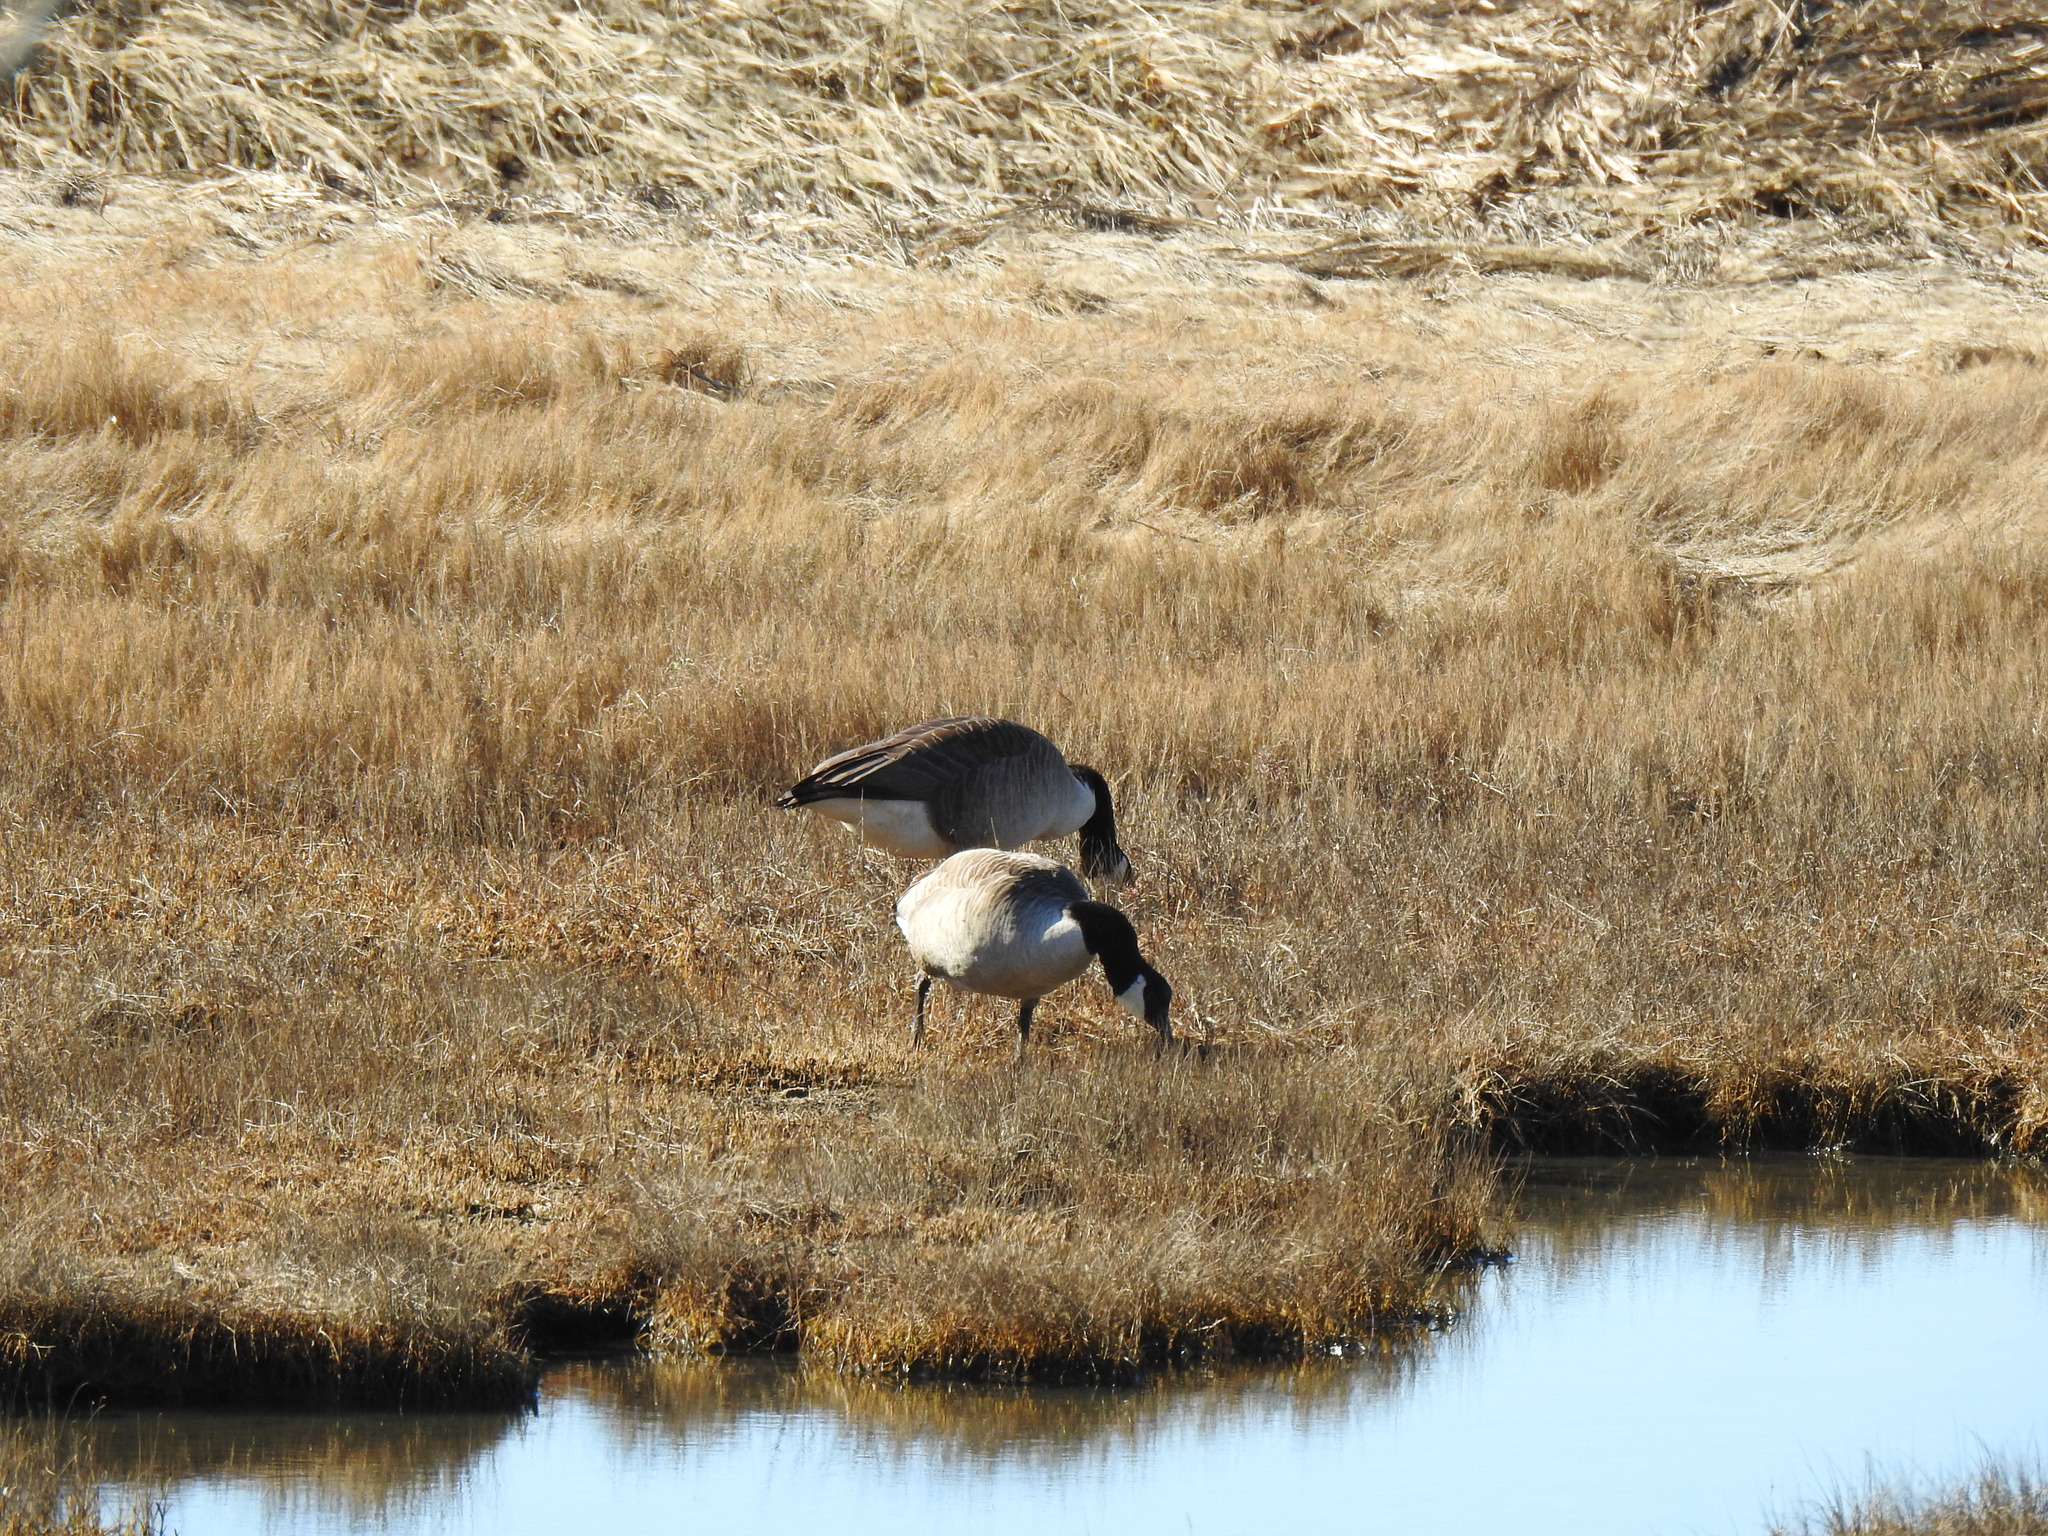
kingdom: Animalia
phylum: Chordata
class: Aves
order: Anseriformes
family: Anatidae
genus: Branta
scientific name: Branta canadensis
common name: Canada goose
